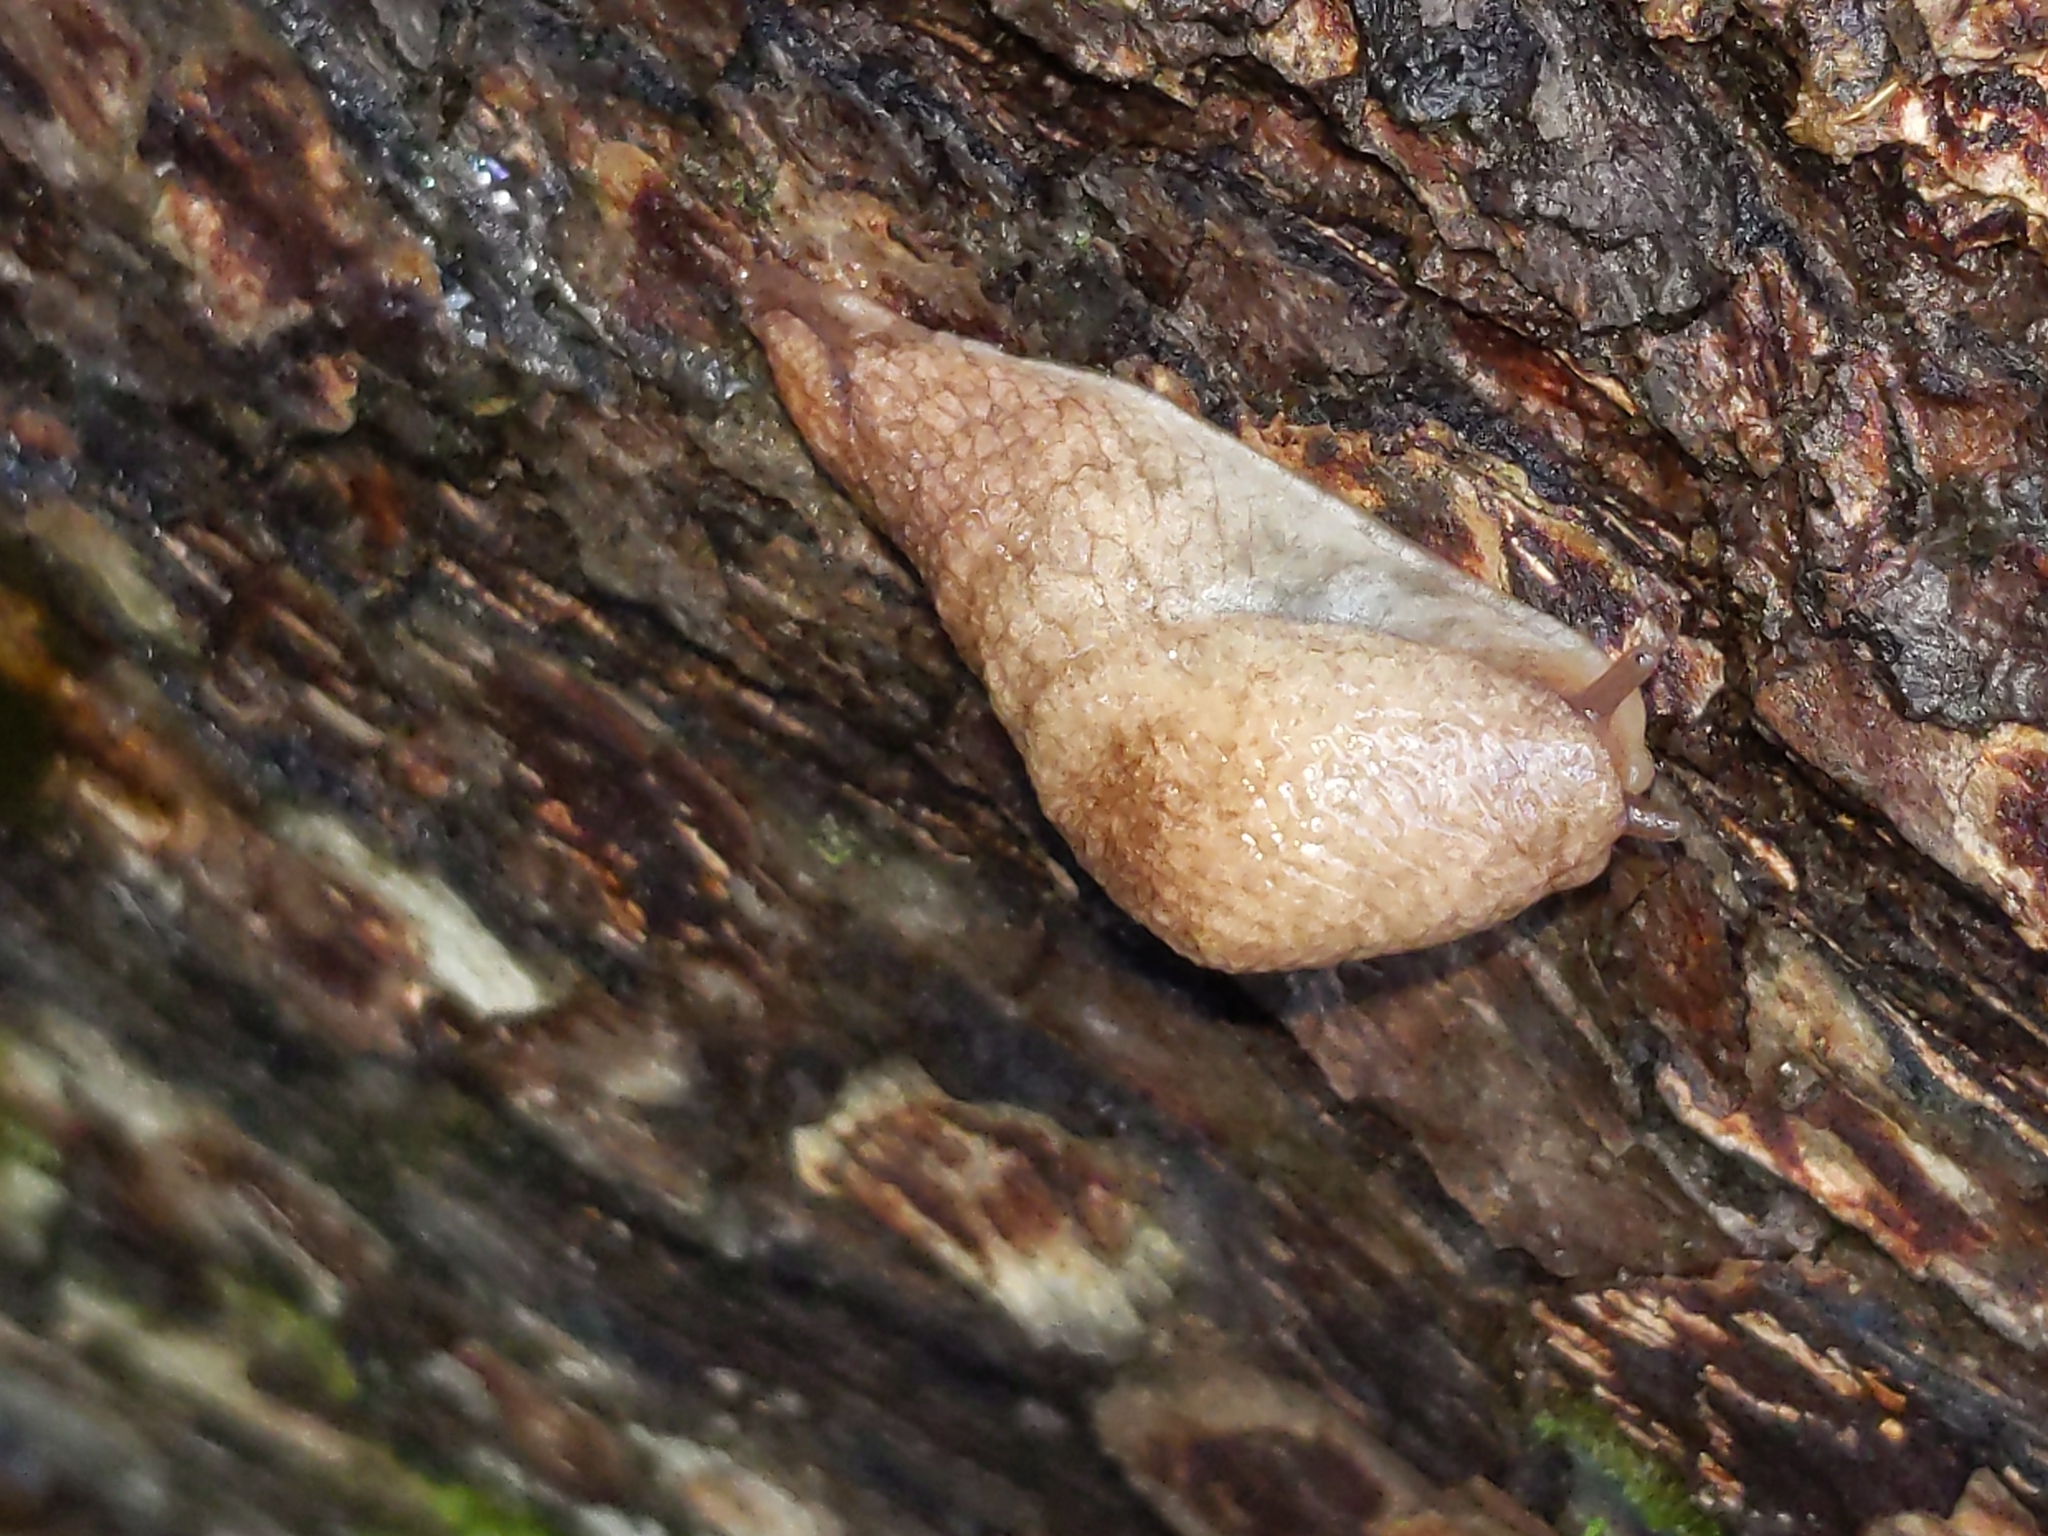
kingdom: Animalia
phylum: Mollusca
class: Gastropoda
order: Stylommatophora
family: Agriolimacidae
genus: Deroceras
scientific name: Deroceras reticulatum
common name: Gray field slug
